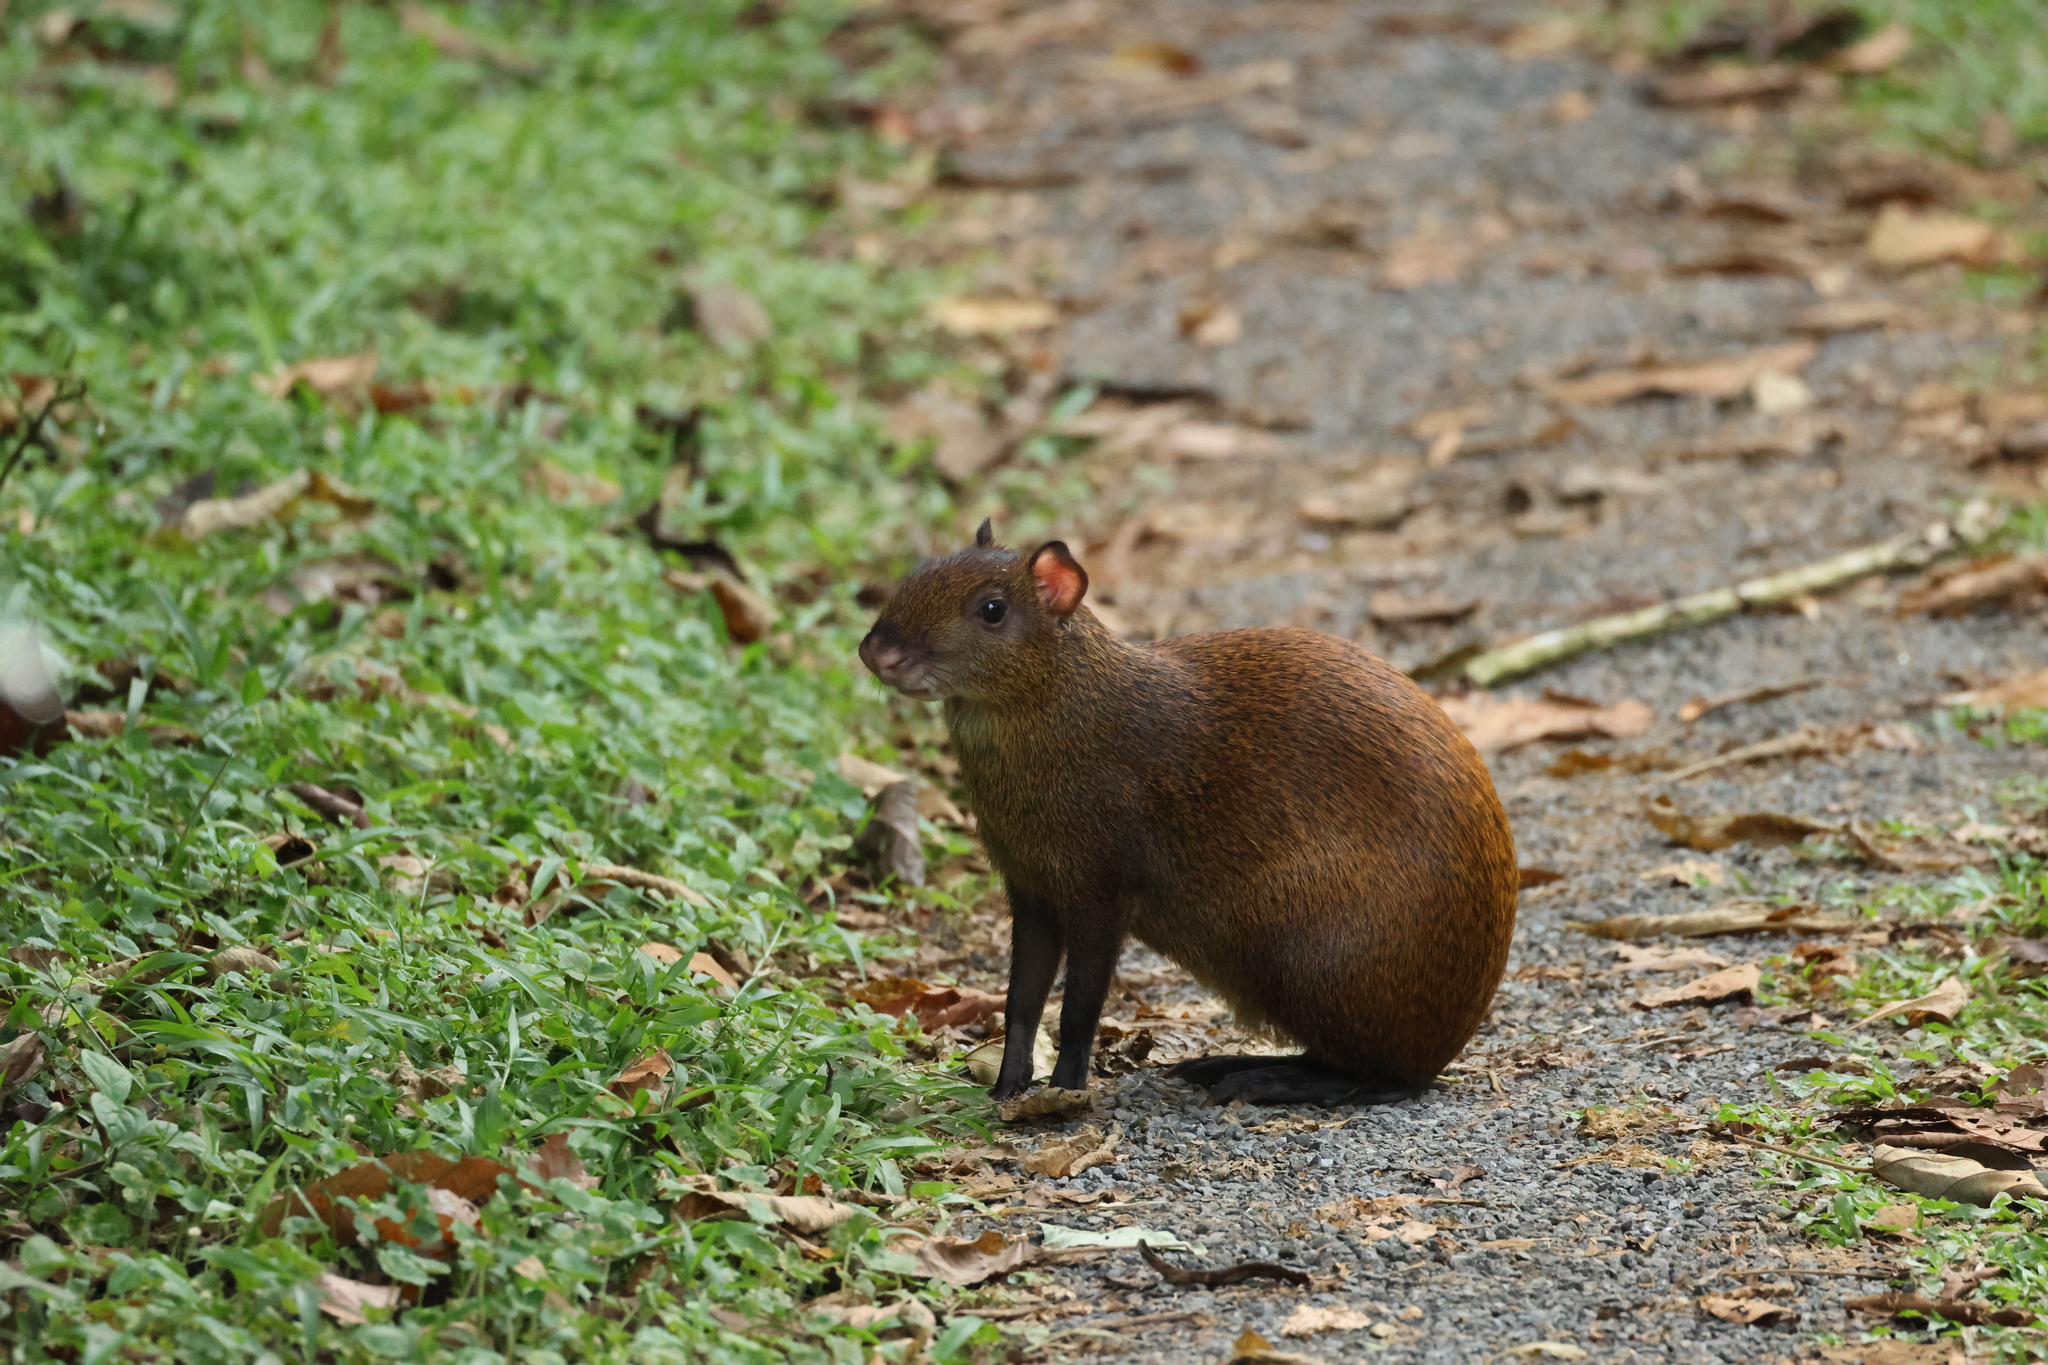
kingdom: Animalia
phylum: Chordata
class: Mammalia
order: Rodentia
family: Dasyproctidae
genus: Dasyprocta
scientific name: Dasyprocta punctata
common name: Central american agouti
